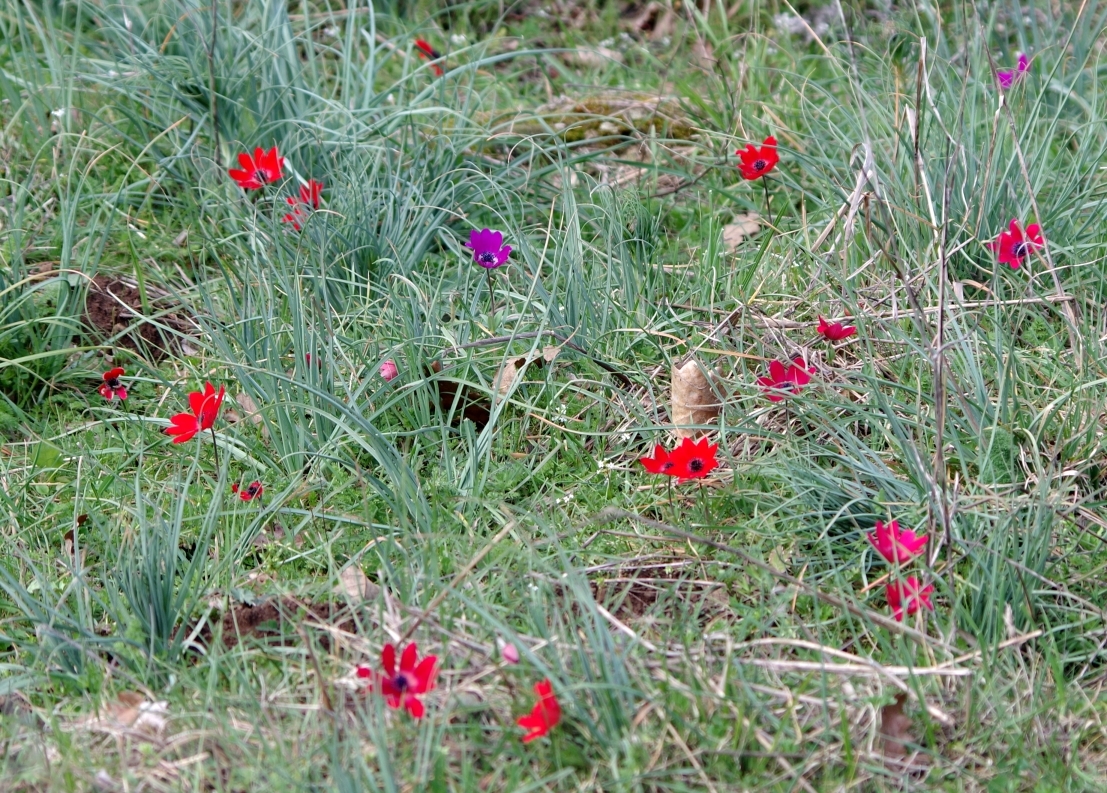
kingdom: Plantae
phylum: Tracheophyta
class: Magnoliopsida
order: Ranunculales
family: Ranunculaceae
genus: Anemone
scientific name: Anemone pavonina
